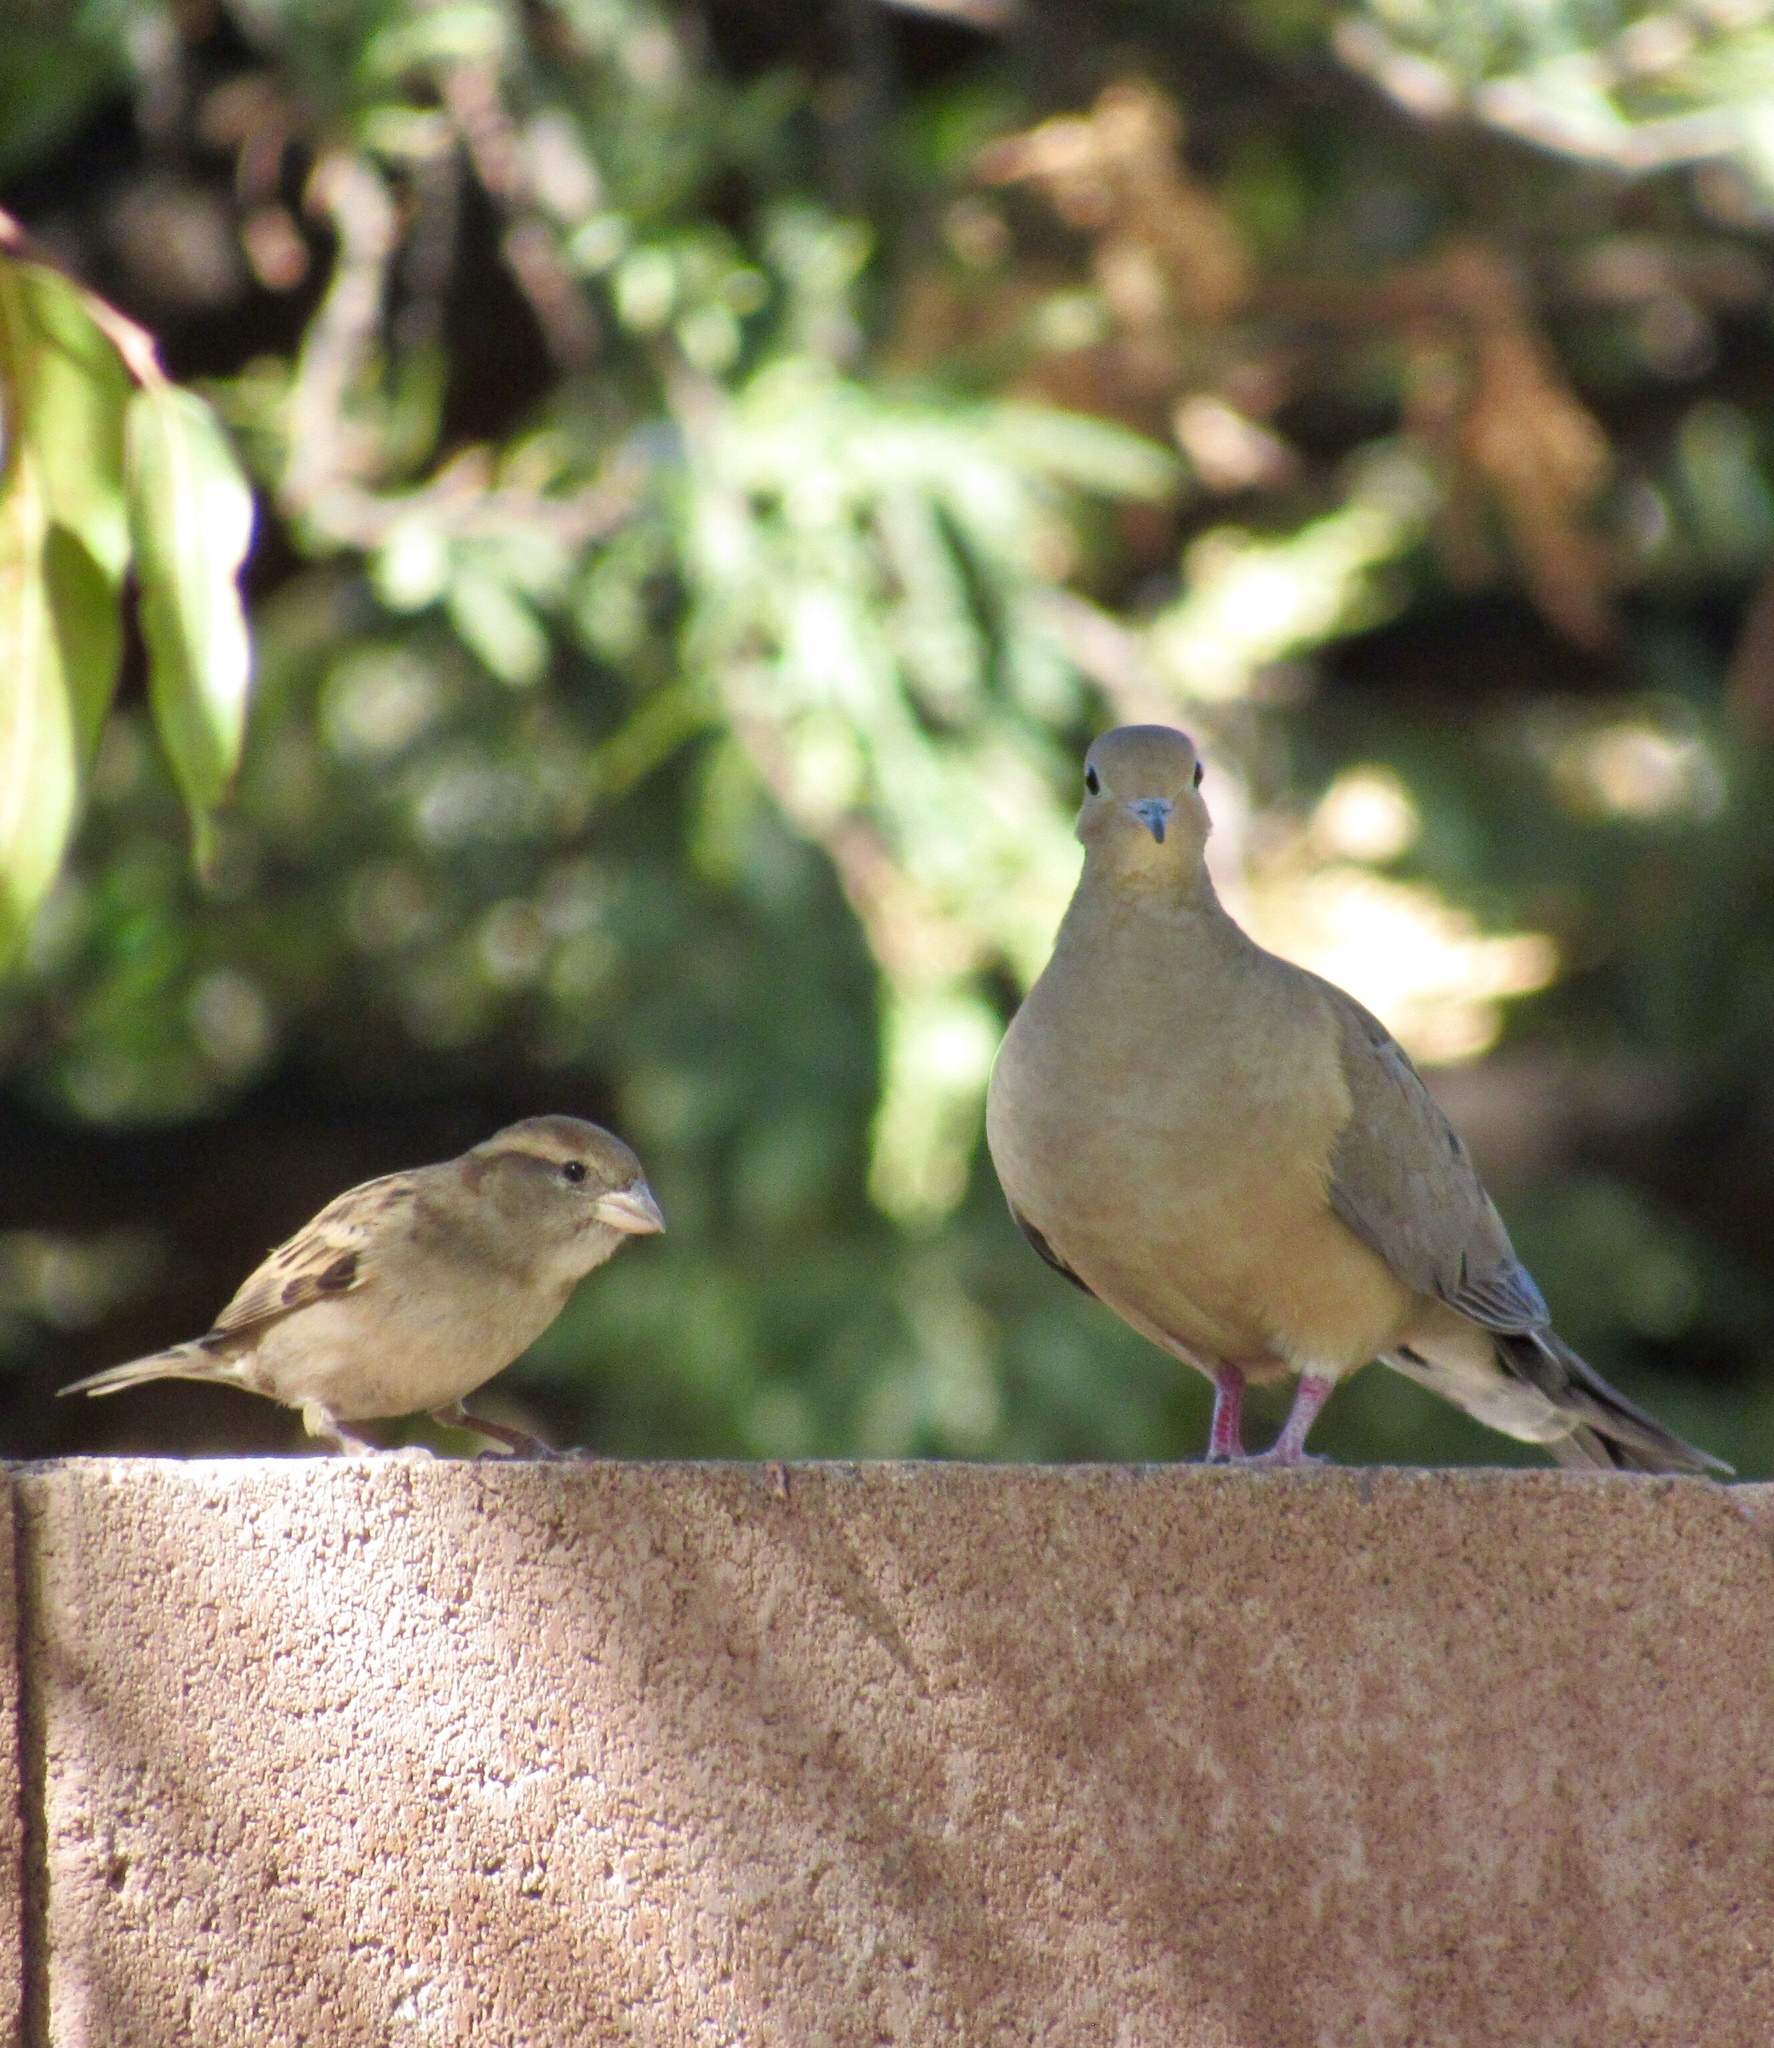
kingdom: Animalia
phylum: Chordata
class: Aves
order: Columbiformes
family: Columbidae
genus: Zenaida
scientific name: Zenaida macroura
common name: Mourning dove
